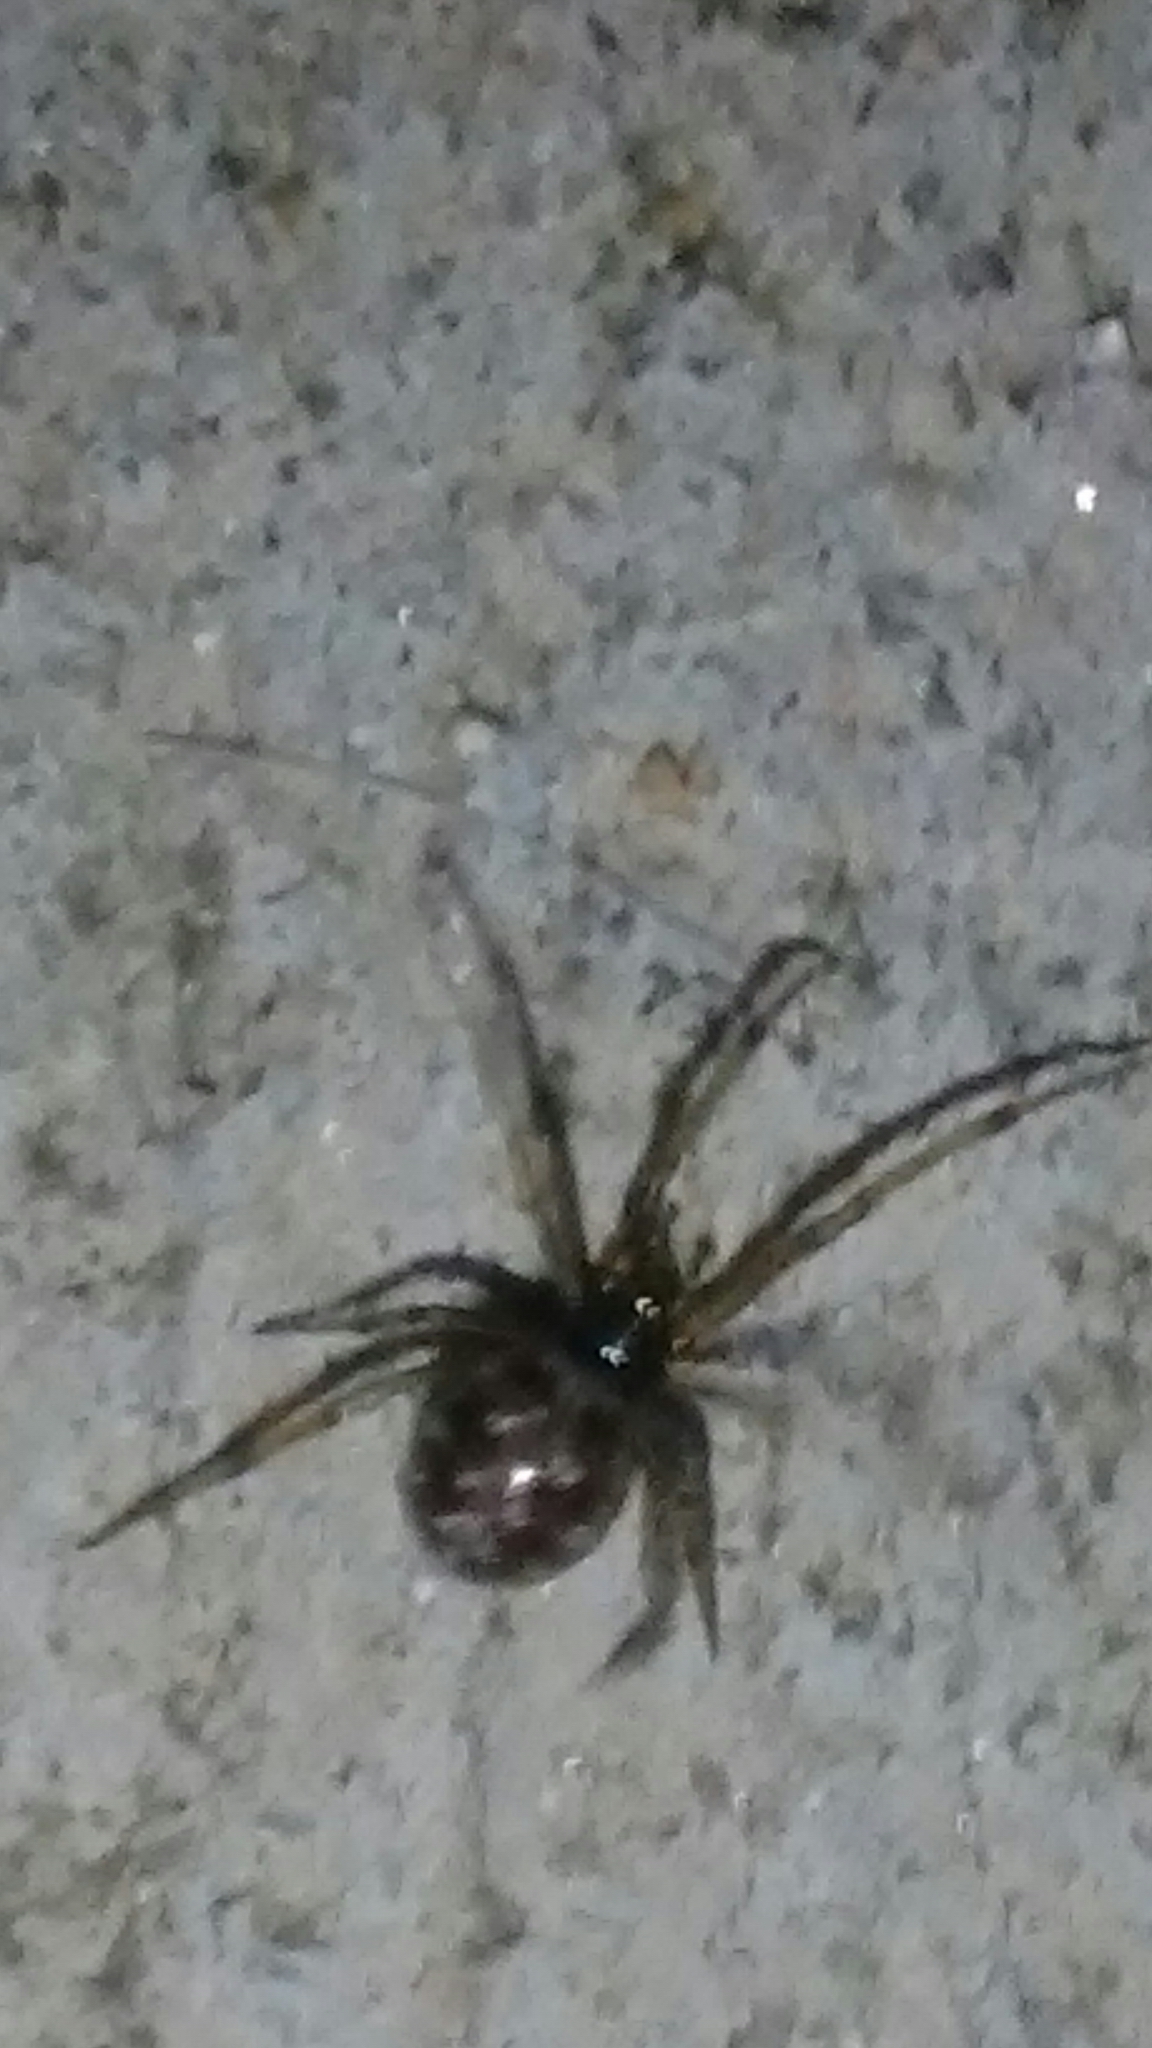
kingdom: Animalia
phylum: Arthropoda
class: Arachnida
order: Araneae
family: Theridiidae
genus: Steatoda
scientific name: Steatoda triangulosa
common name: Triangulate bud spider
